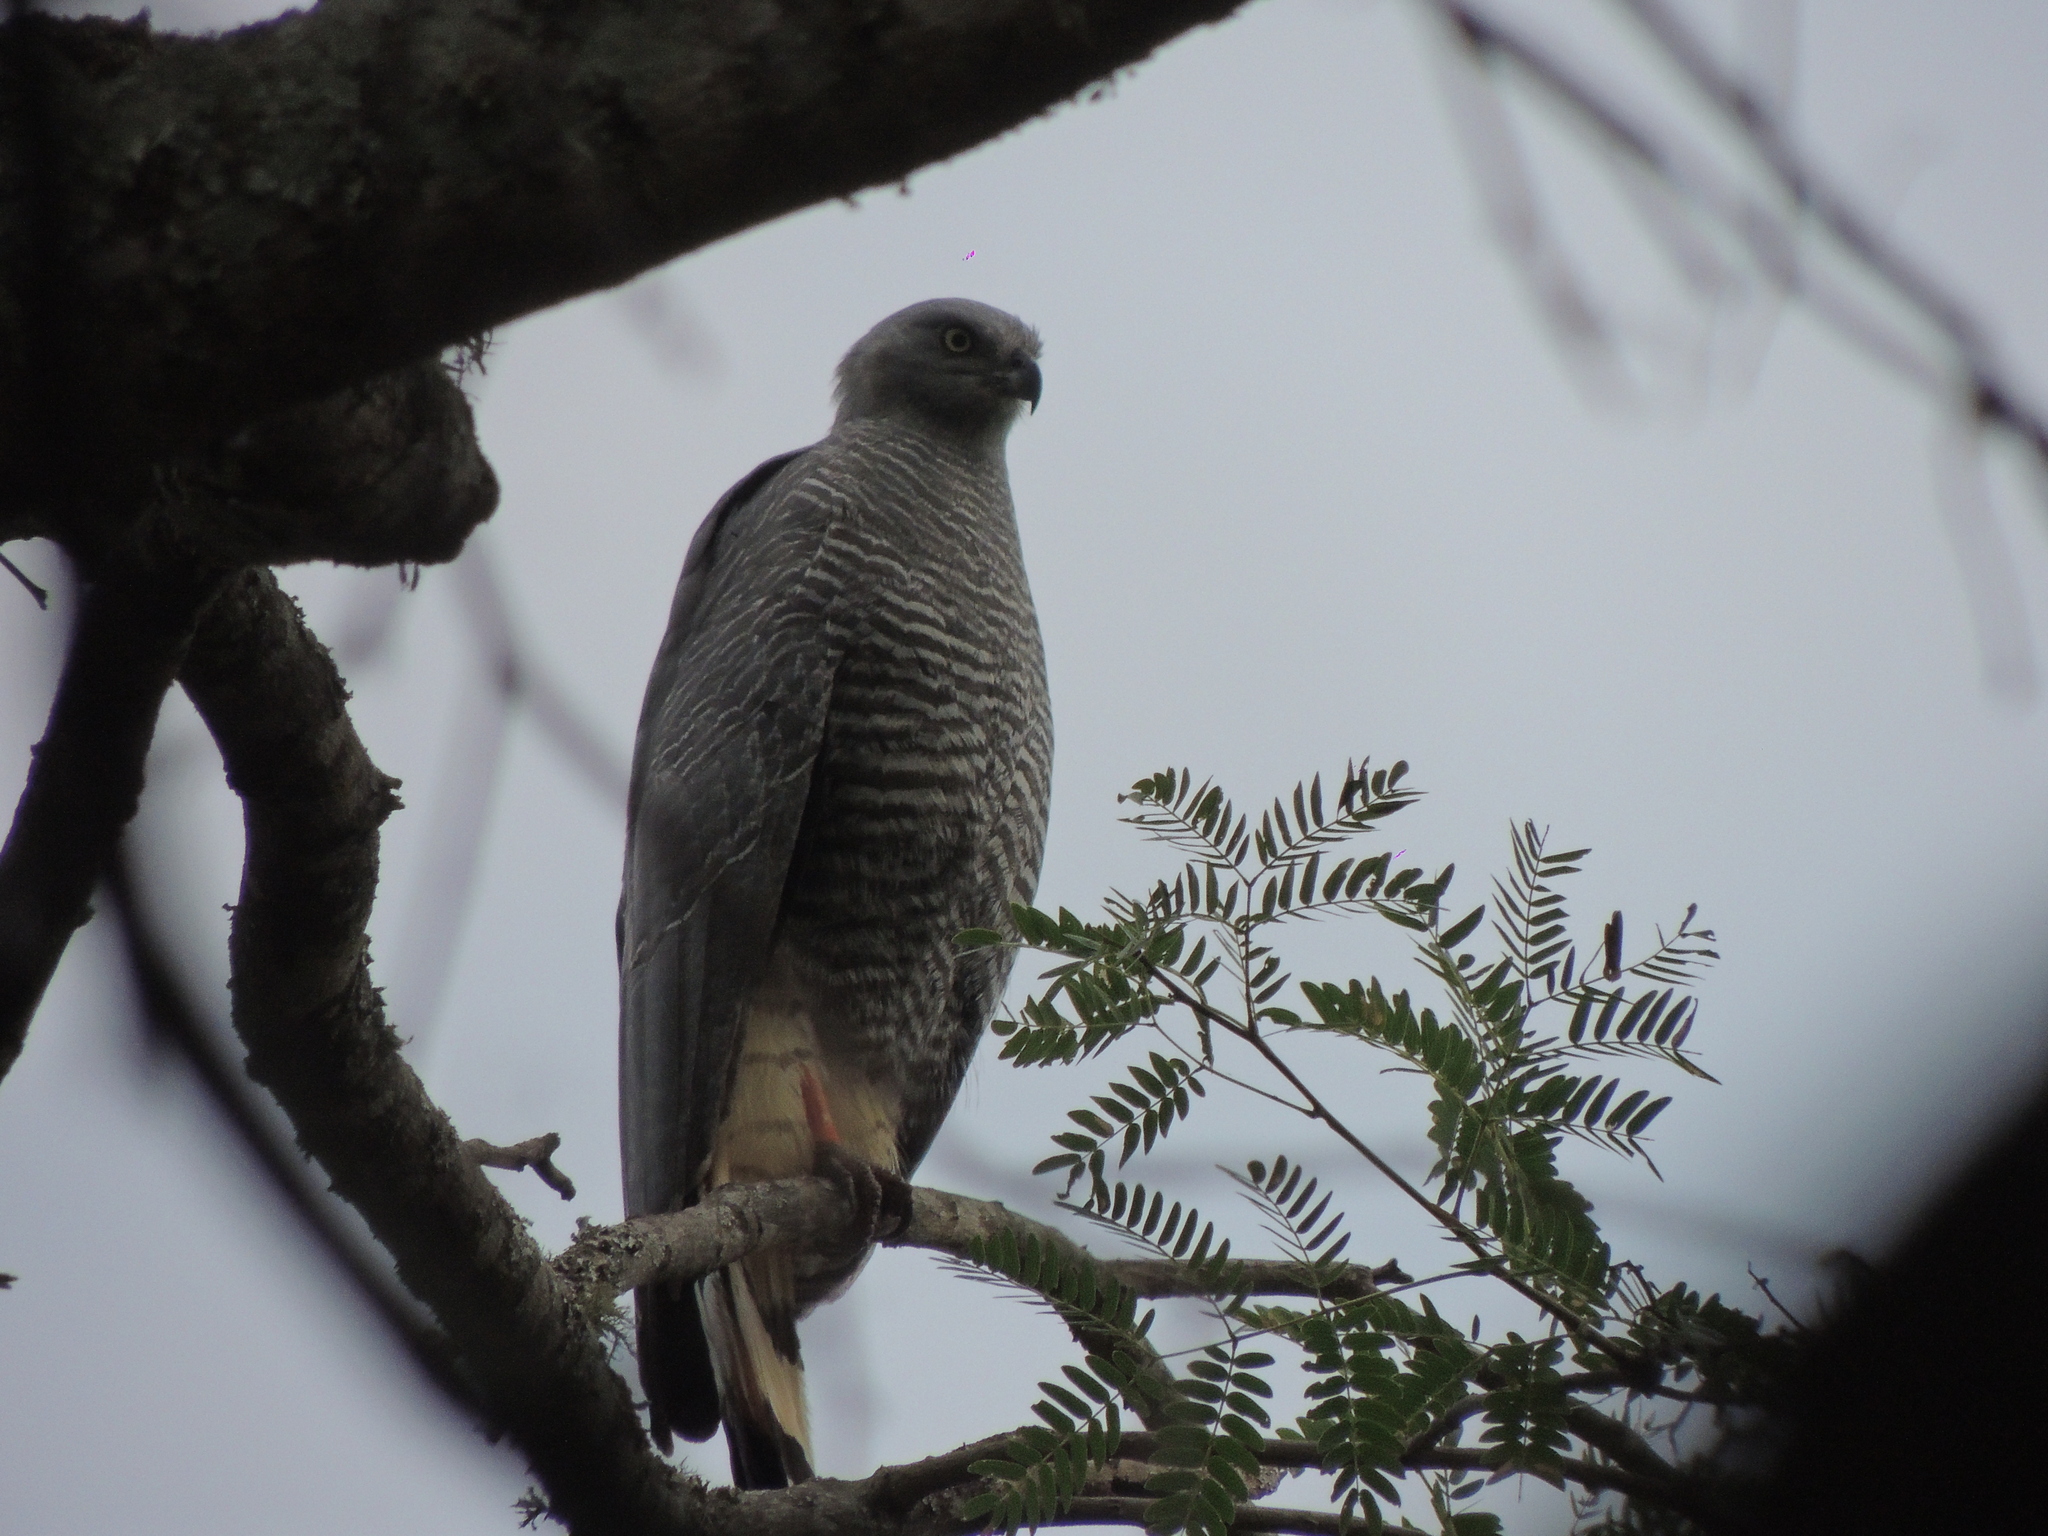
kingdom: Animalia
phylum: Chordata
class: Aves
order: Accipitriformes
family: Accipitridae
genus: Geranospiza
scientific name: Geranospiza caerulescens
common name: Crane hawk
